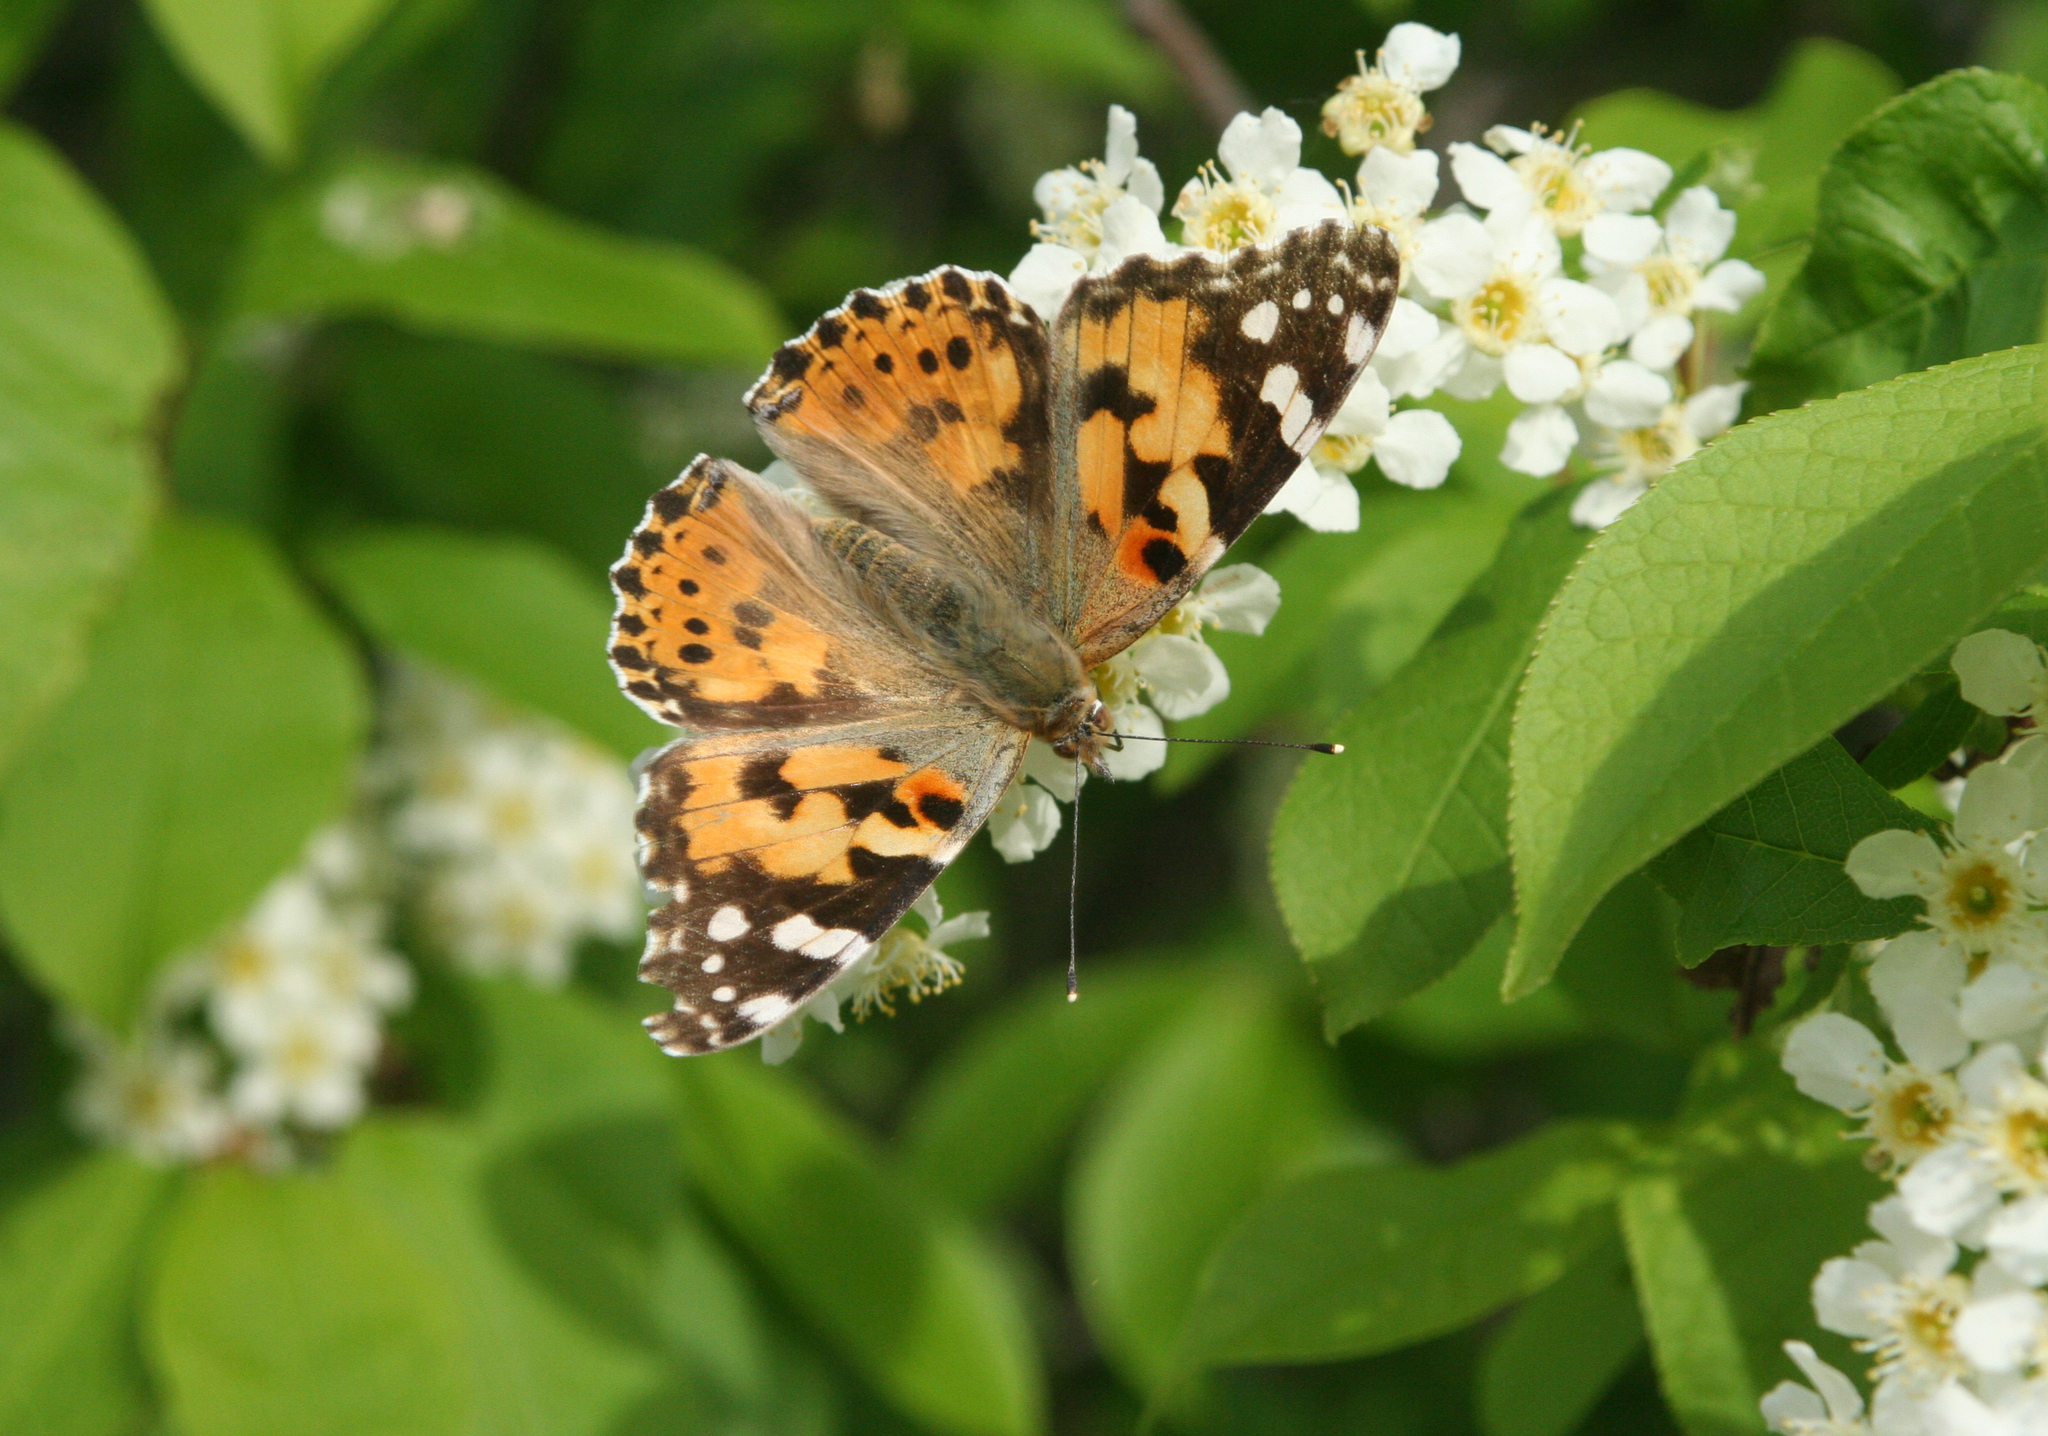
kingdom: Animalia
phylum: Arthropoda
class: Insecta
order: Lepidoptera
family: Nymphalidae
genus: Vanessa
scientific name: Vanessa cardui
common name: Painted lady
